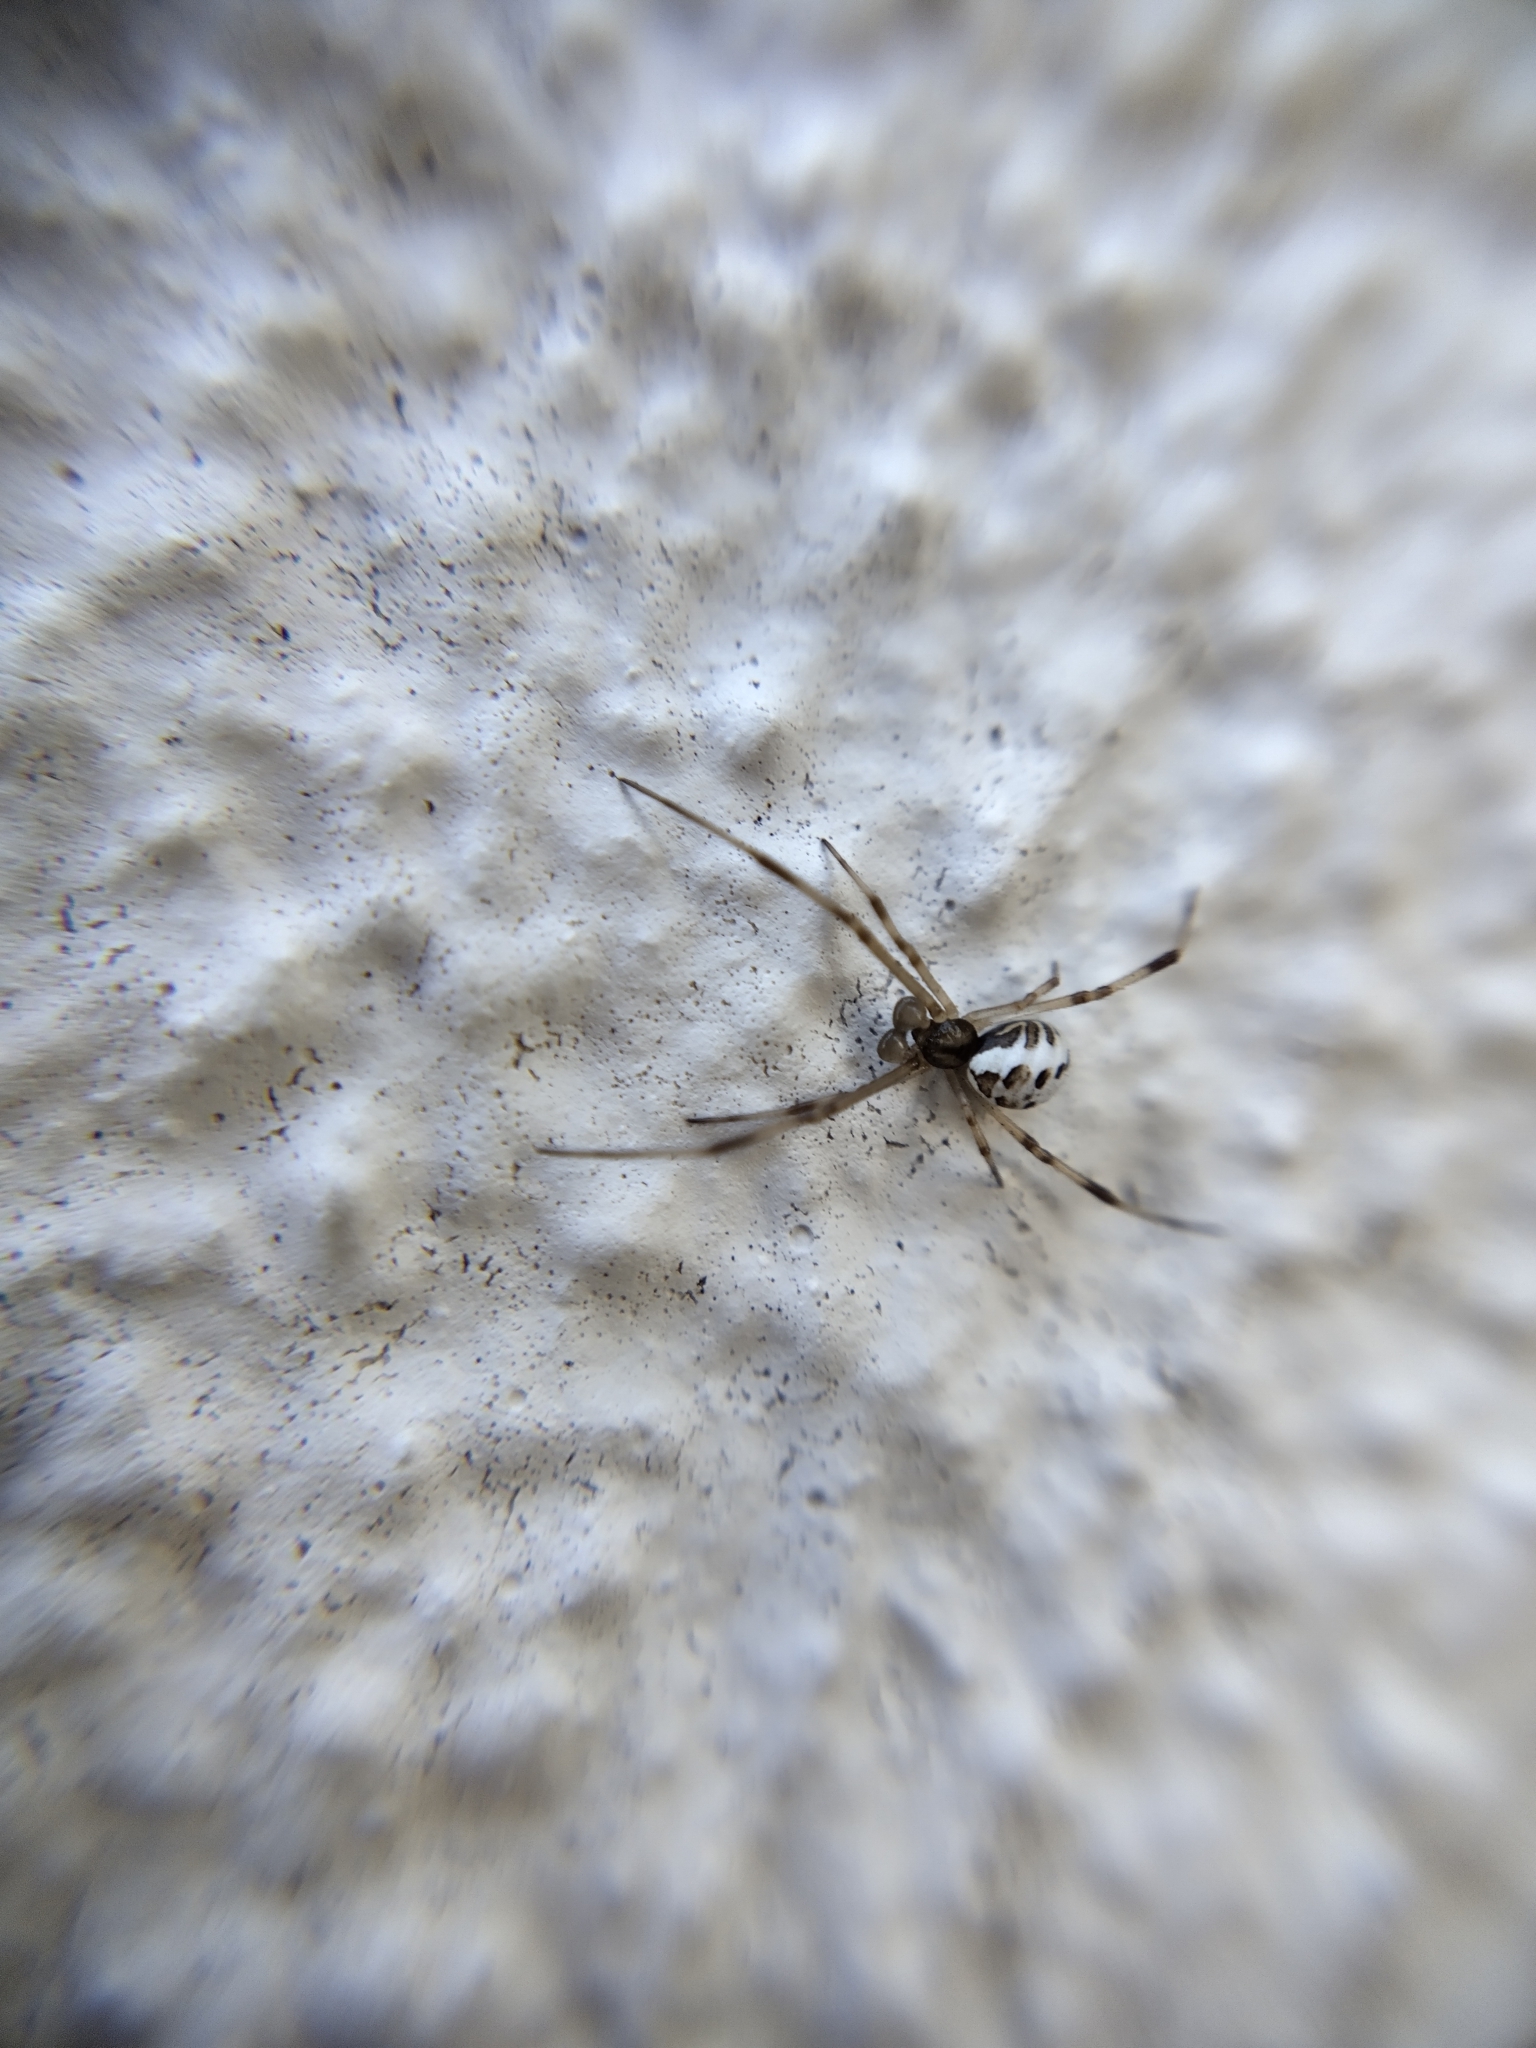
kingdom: Animalia
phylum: Arthropoda
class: Arachnida
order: Araneae
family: Theridiidae
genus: Latrodectus
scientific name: Latrodectus hasselti
